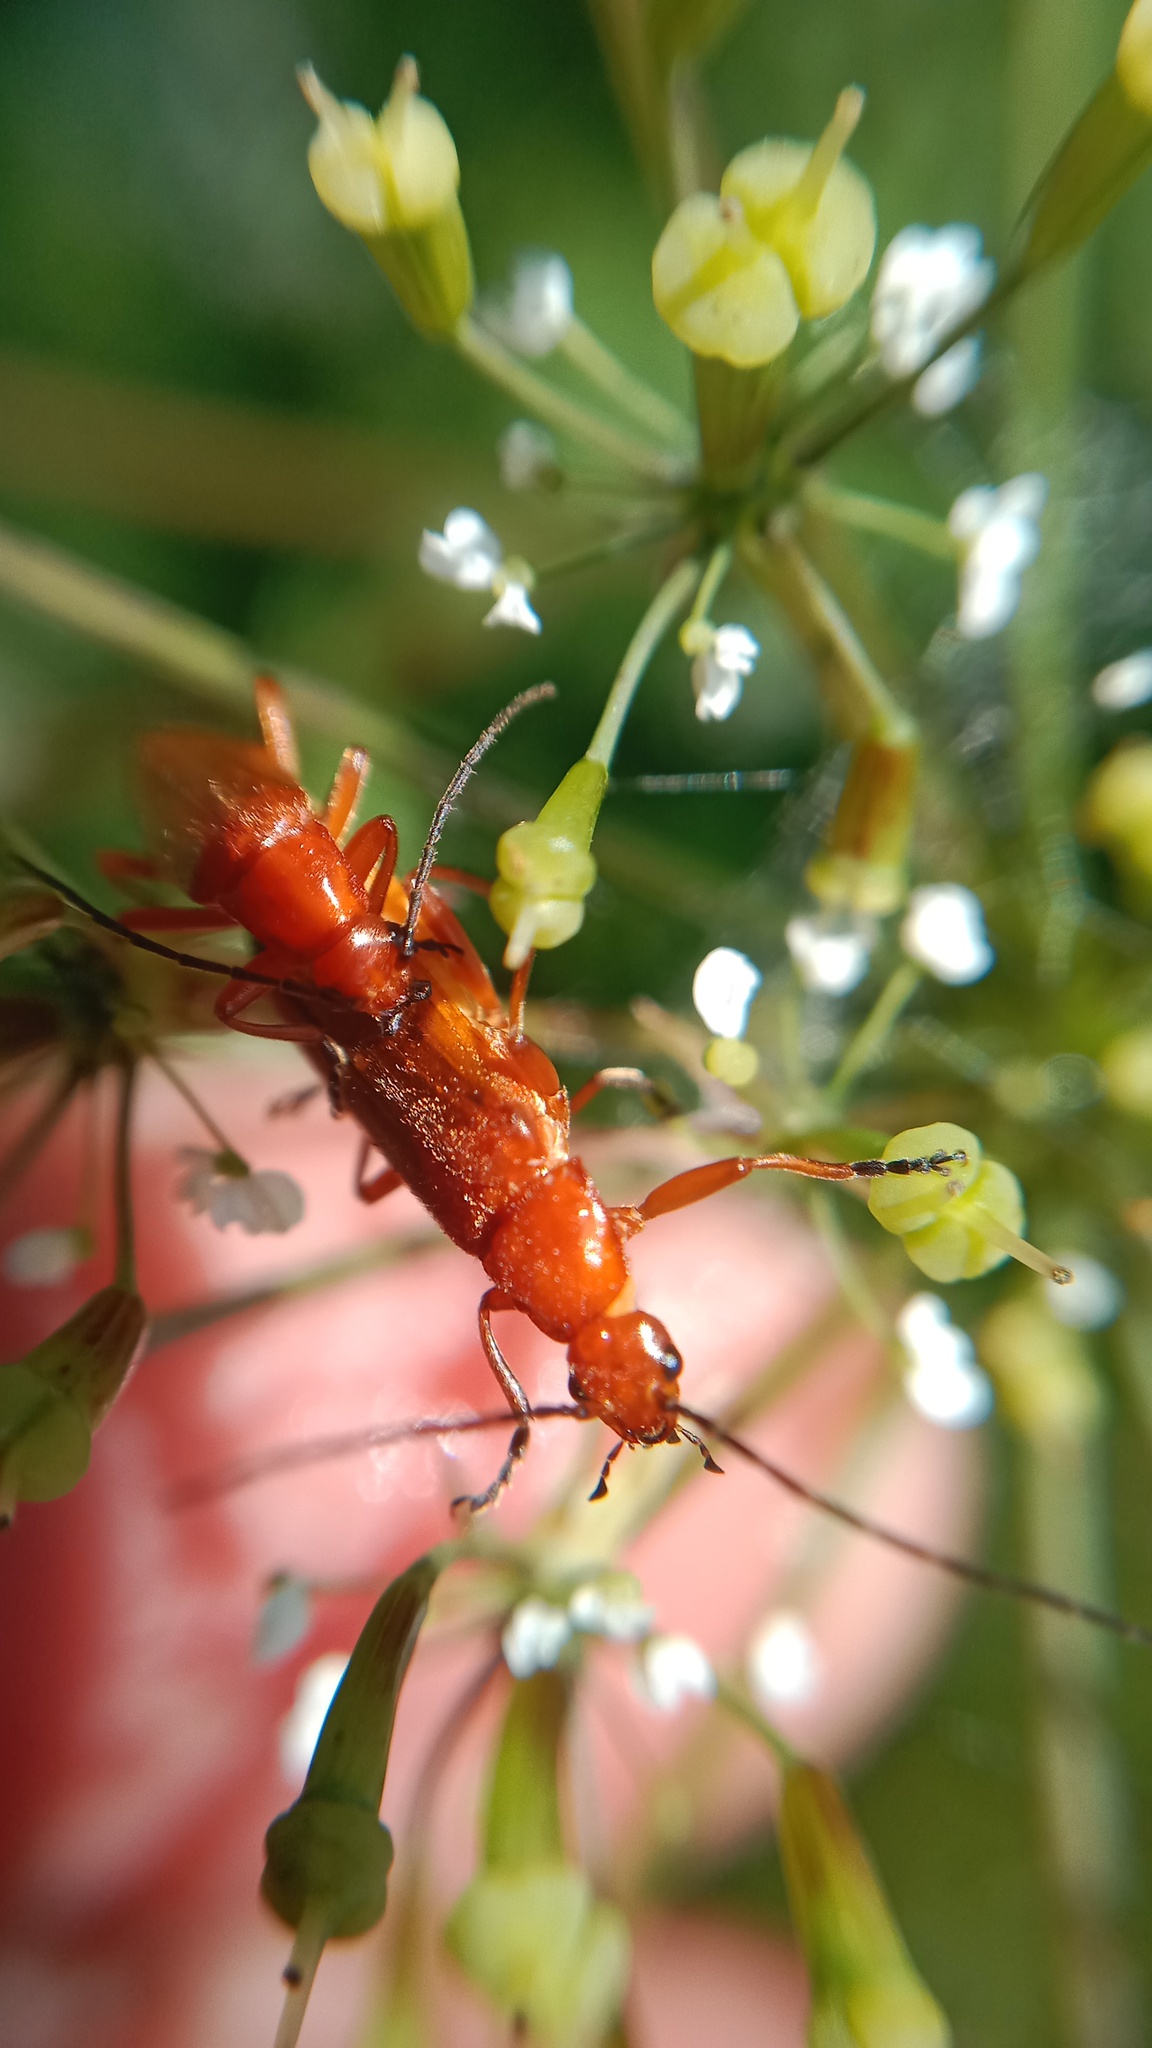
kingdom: Animalia
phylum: Arthropoda
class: Insecta
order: Coleoptera
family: Cantharidae
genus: Rhagonycha
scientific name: Rhagonycha fulva
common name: Common red soldier beetle
